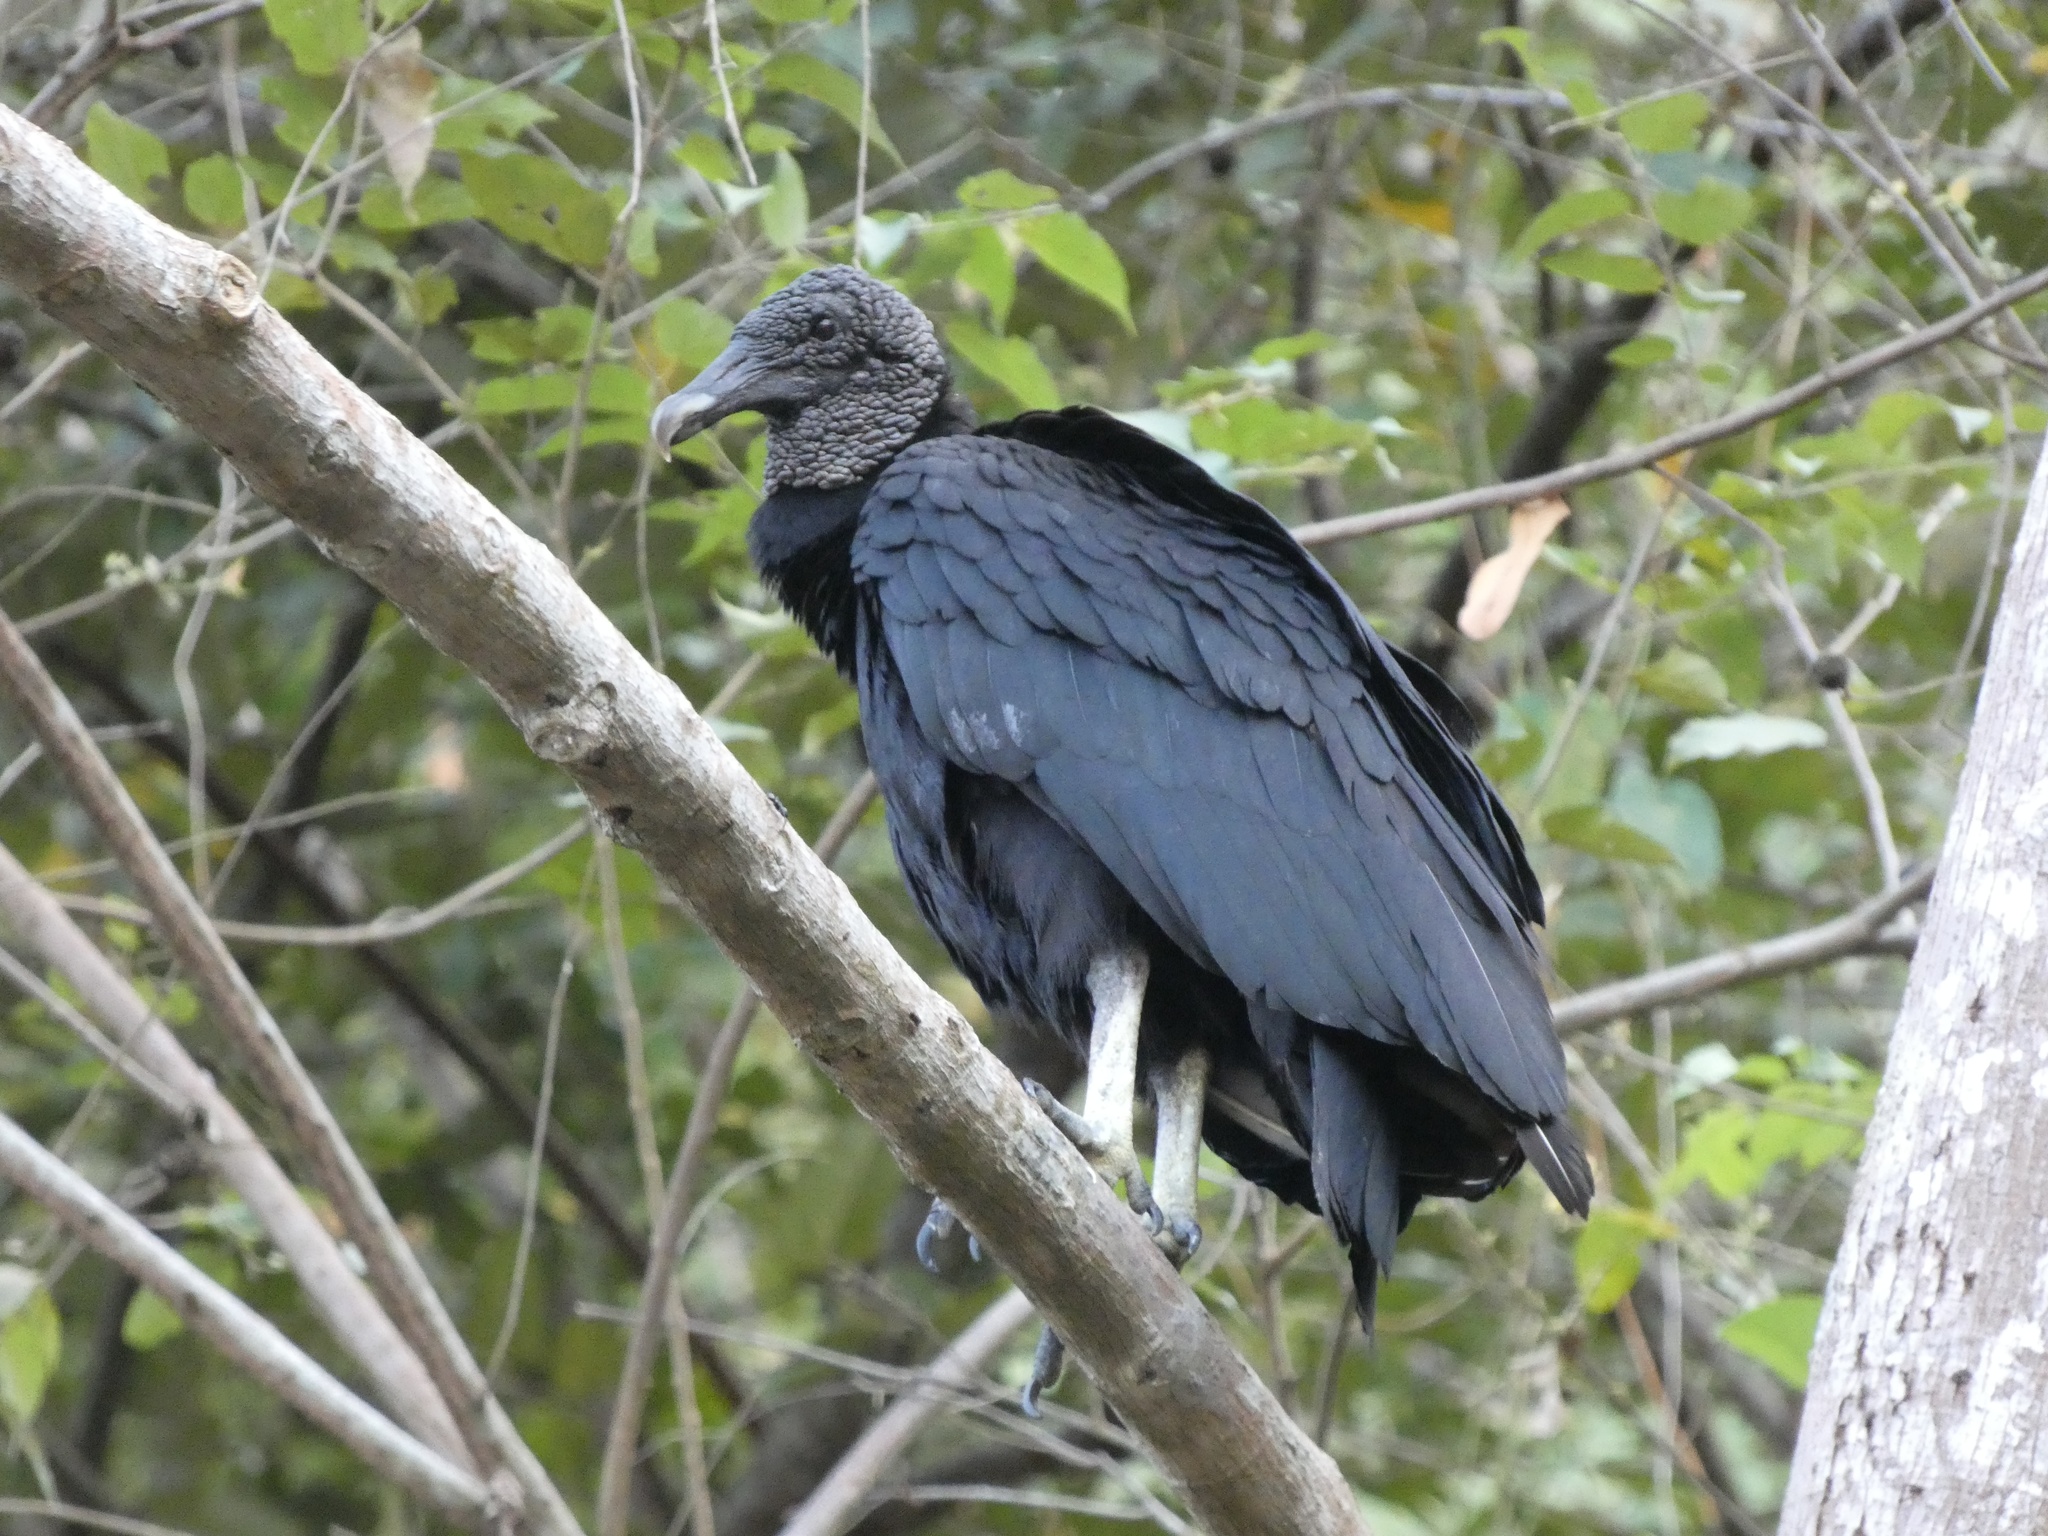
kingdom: Animalia
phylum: Chordata
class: Aves
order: Accipitriformes
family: Cathartidae
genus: Coragyps
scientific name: Coragyps atratus
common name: Black vulture
